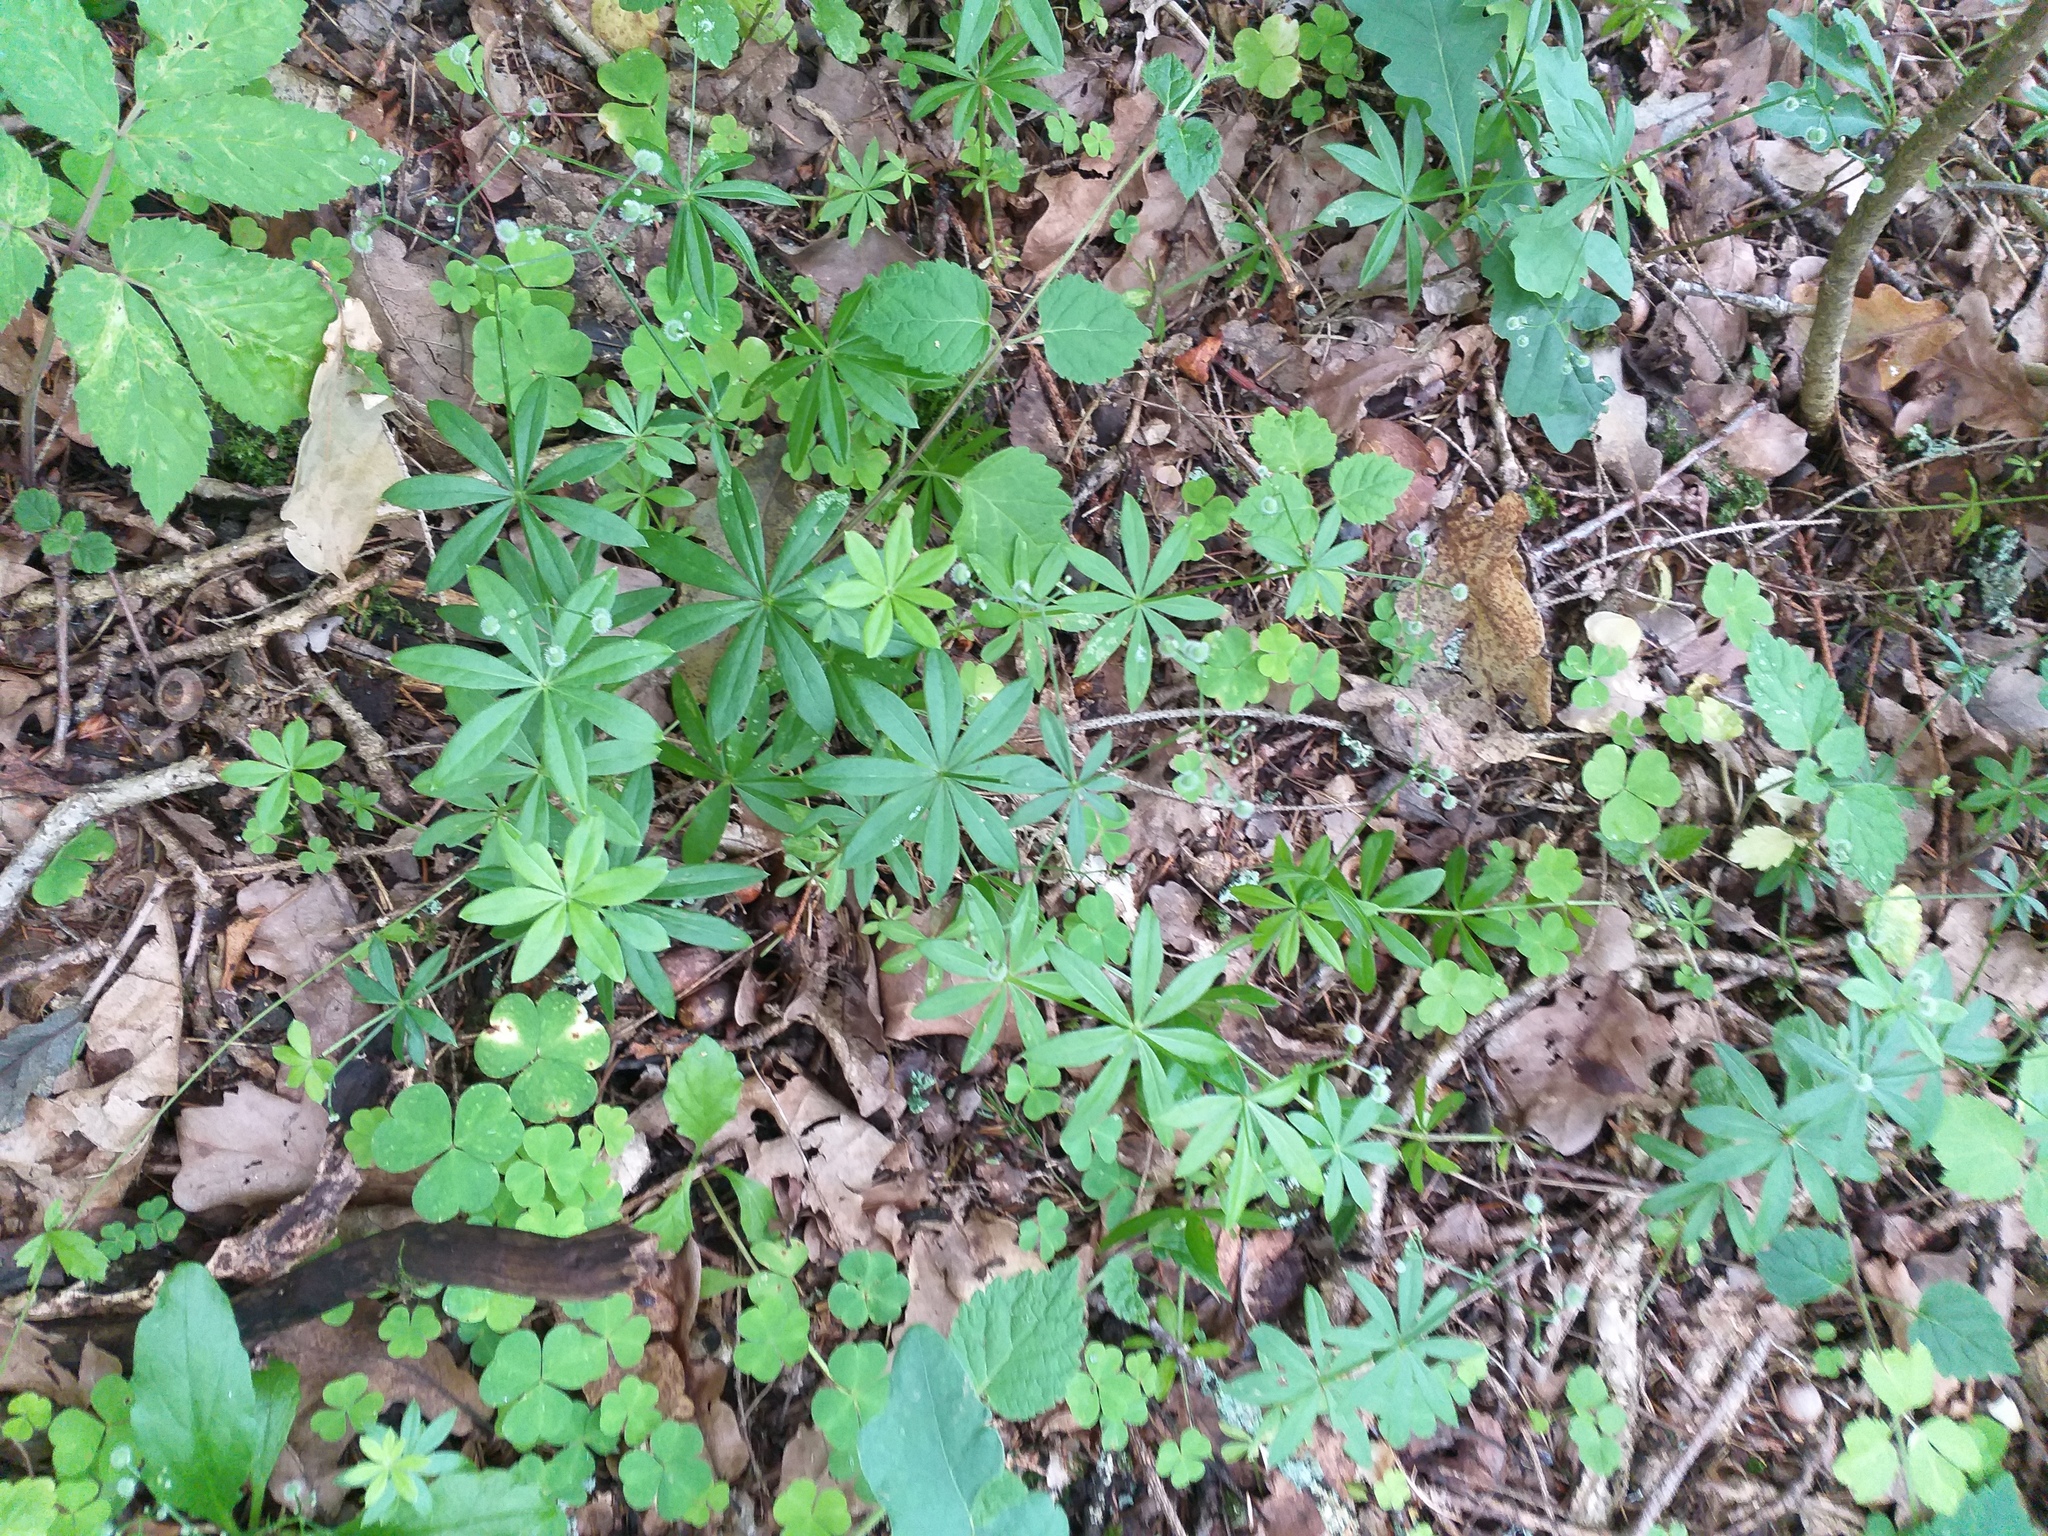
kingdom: Plantae
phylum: Tracheophyta
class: Magnoliopsida
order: Gentianales
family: Rubiaceae
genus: Galium
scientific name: Galium odoratum
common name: Sweet woodruff
